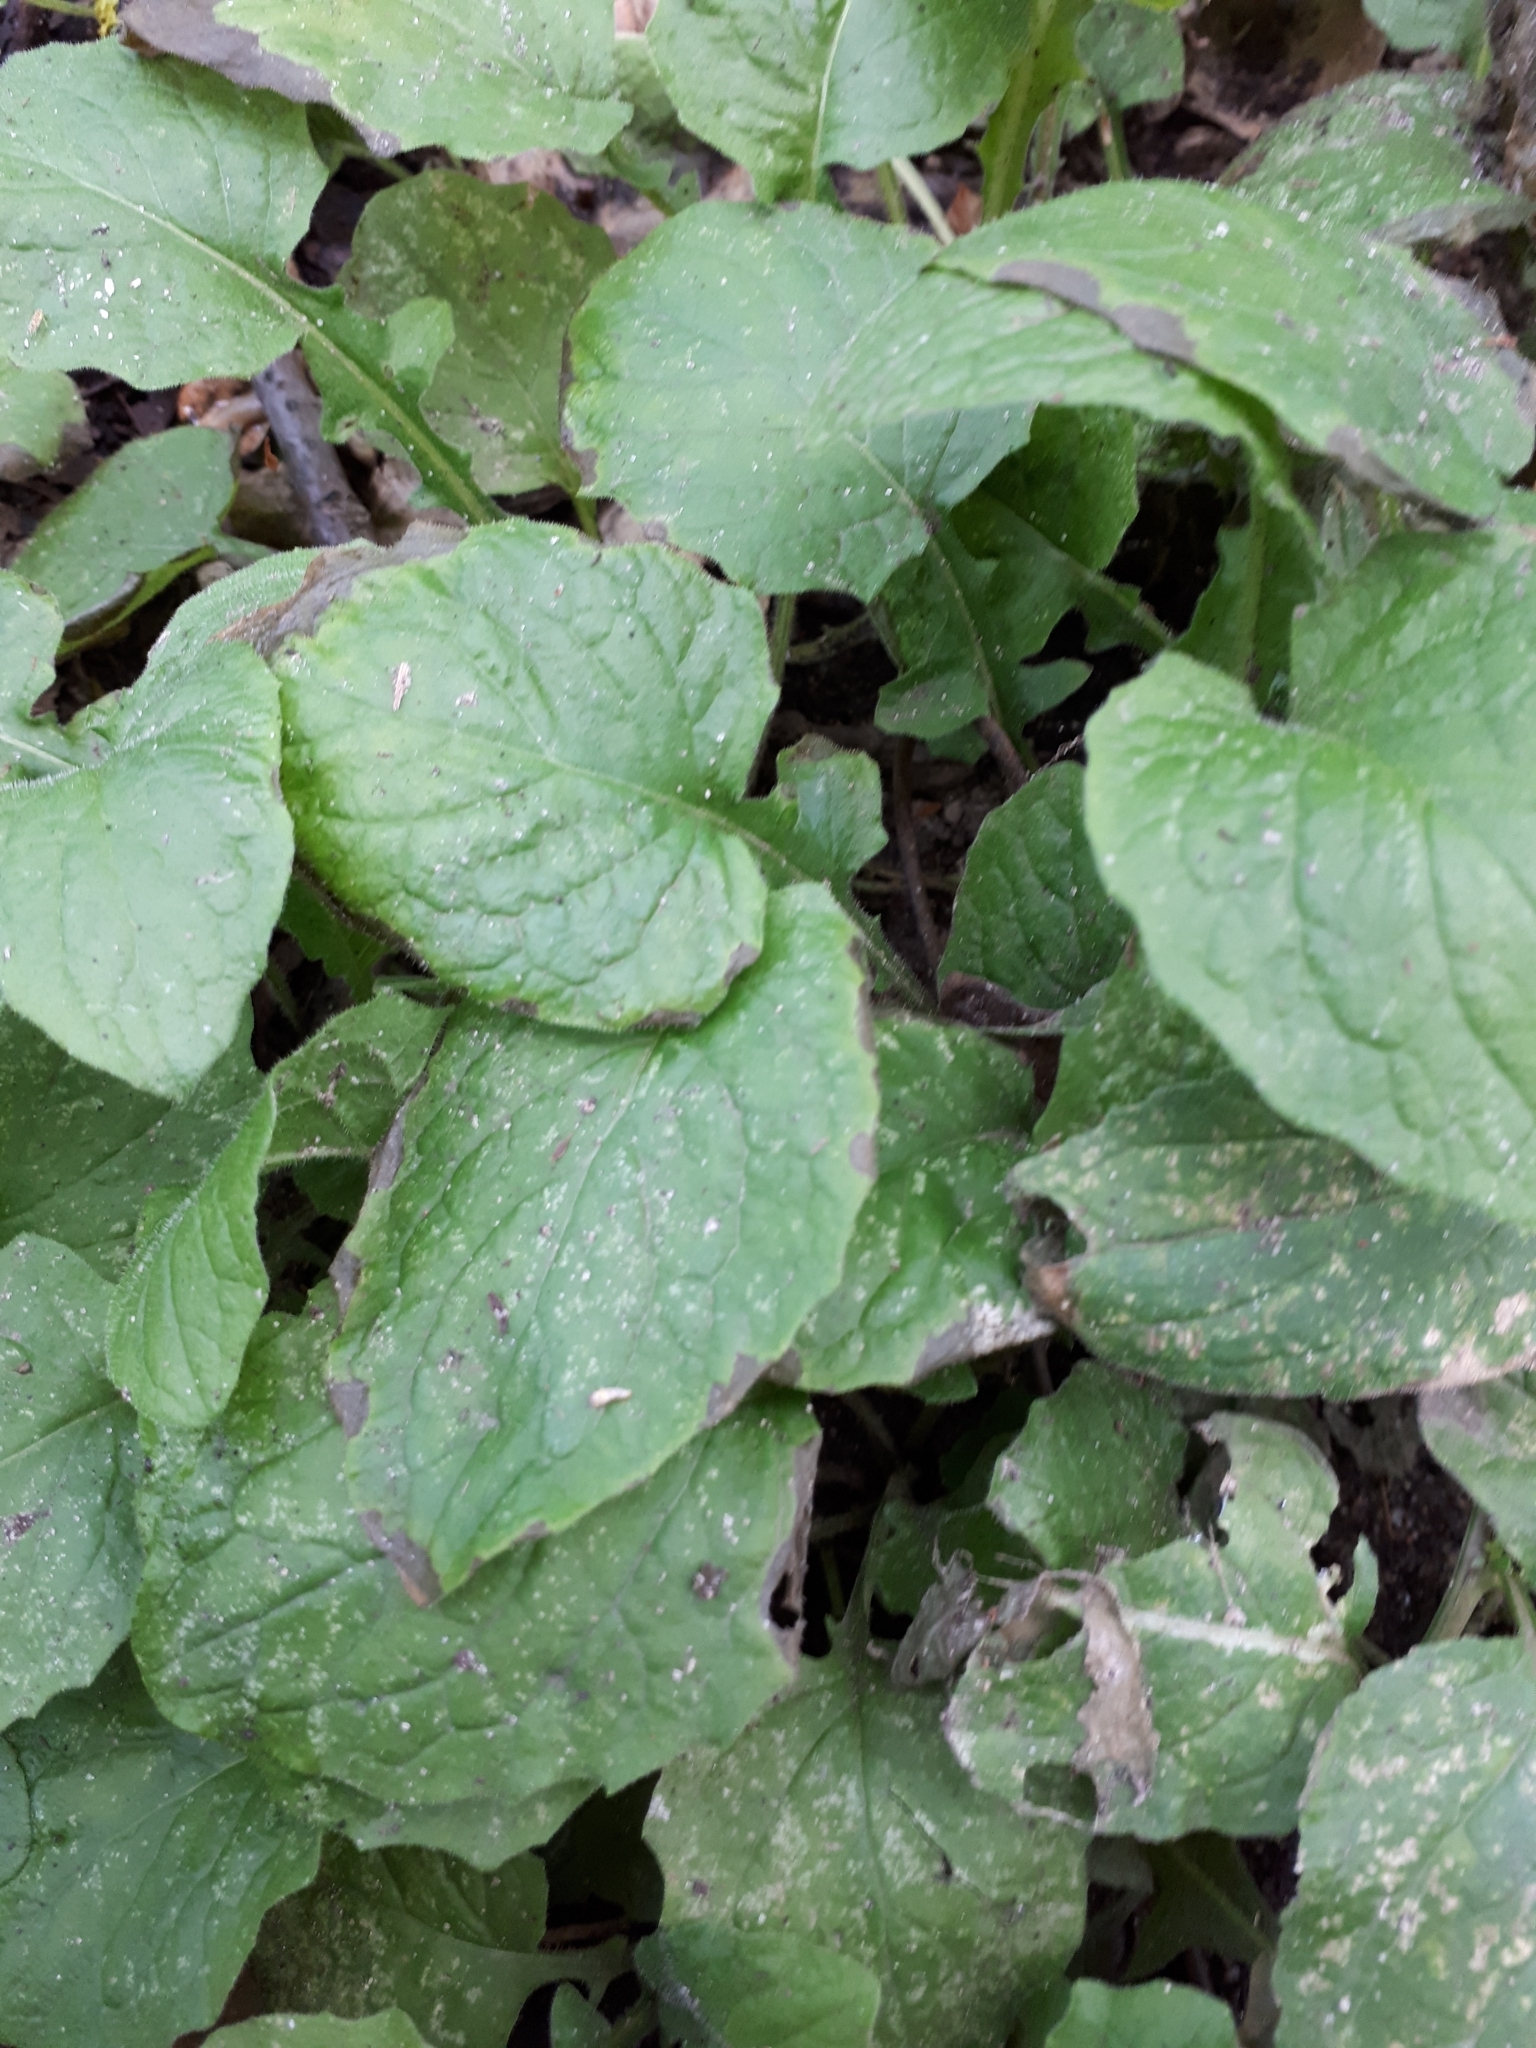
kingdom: Plantae
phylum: Tracheophyta
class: Magnoliopsida
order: Asterales
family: Asteraceae
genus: Lapsana
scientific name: Lapsana communis
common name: Nipplewort
